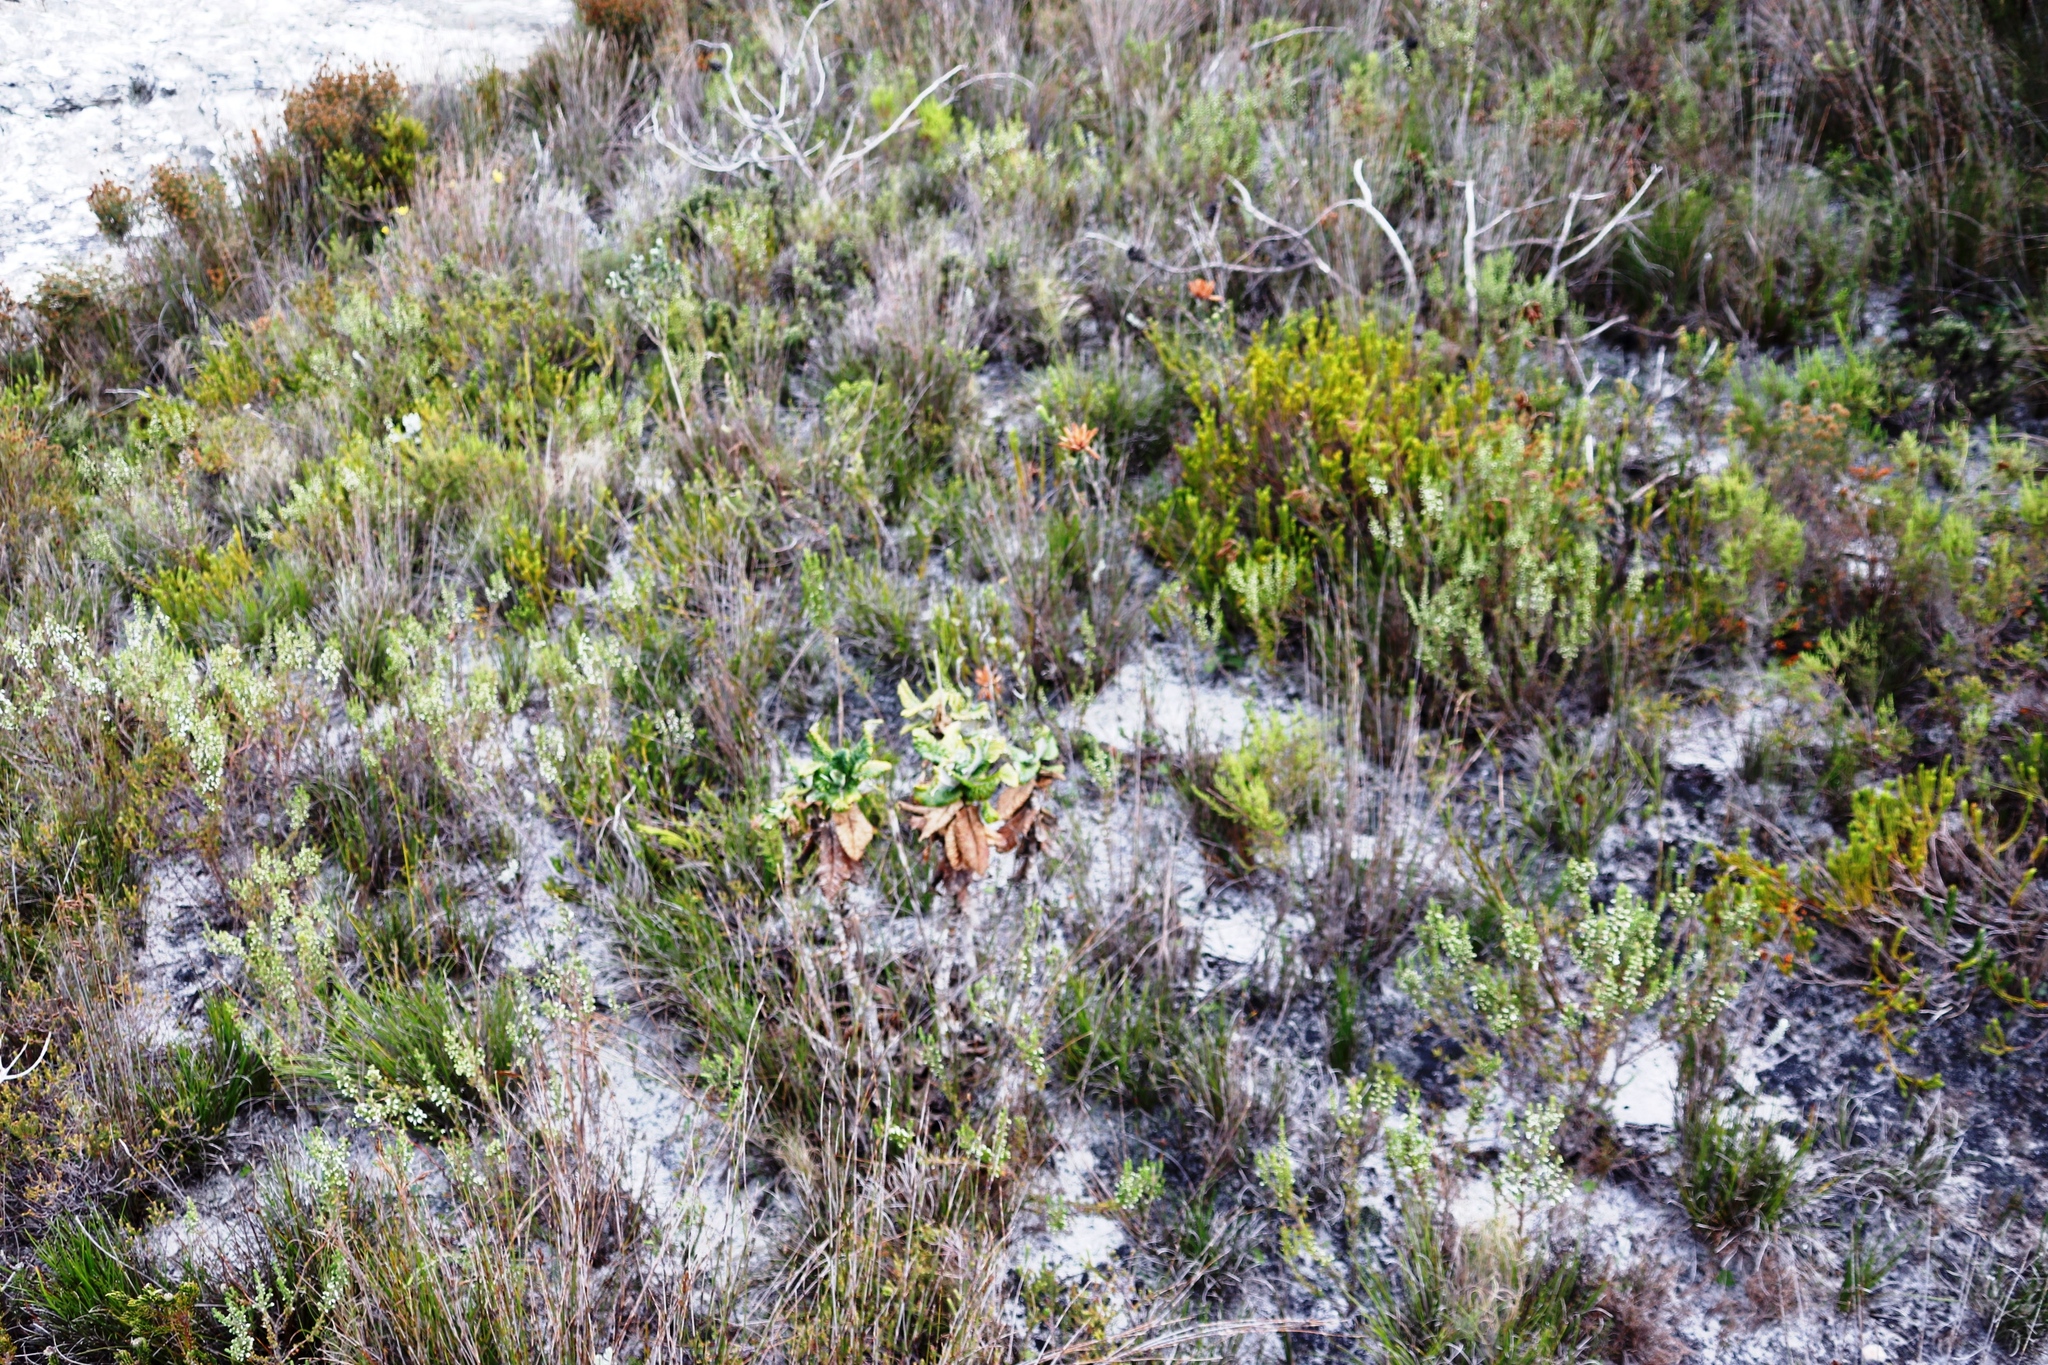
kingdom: Plantae
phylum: Tracheophyta
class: Magnoliopsida
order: Ericales
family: Ericaceae
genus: Erica
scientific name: Erica cerinthoides
